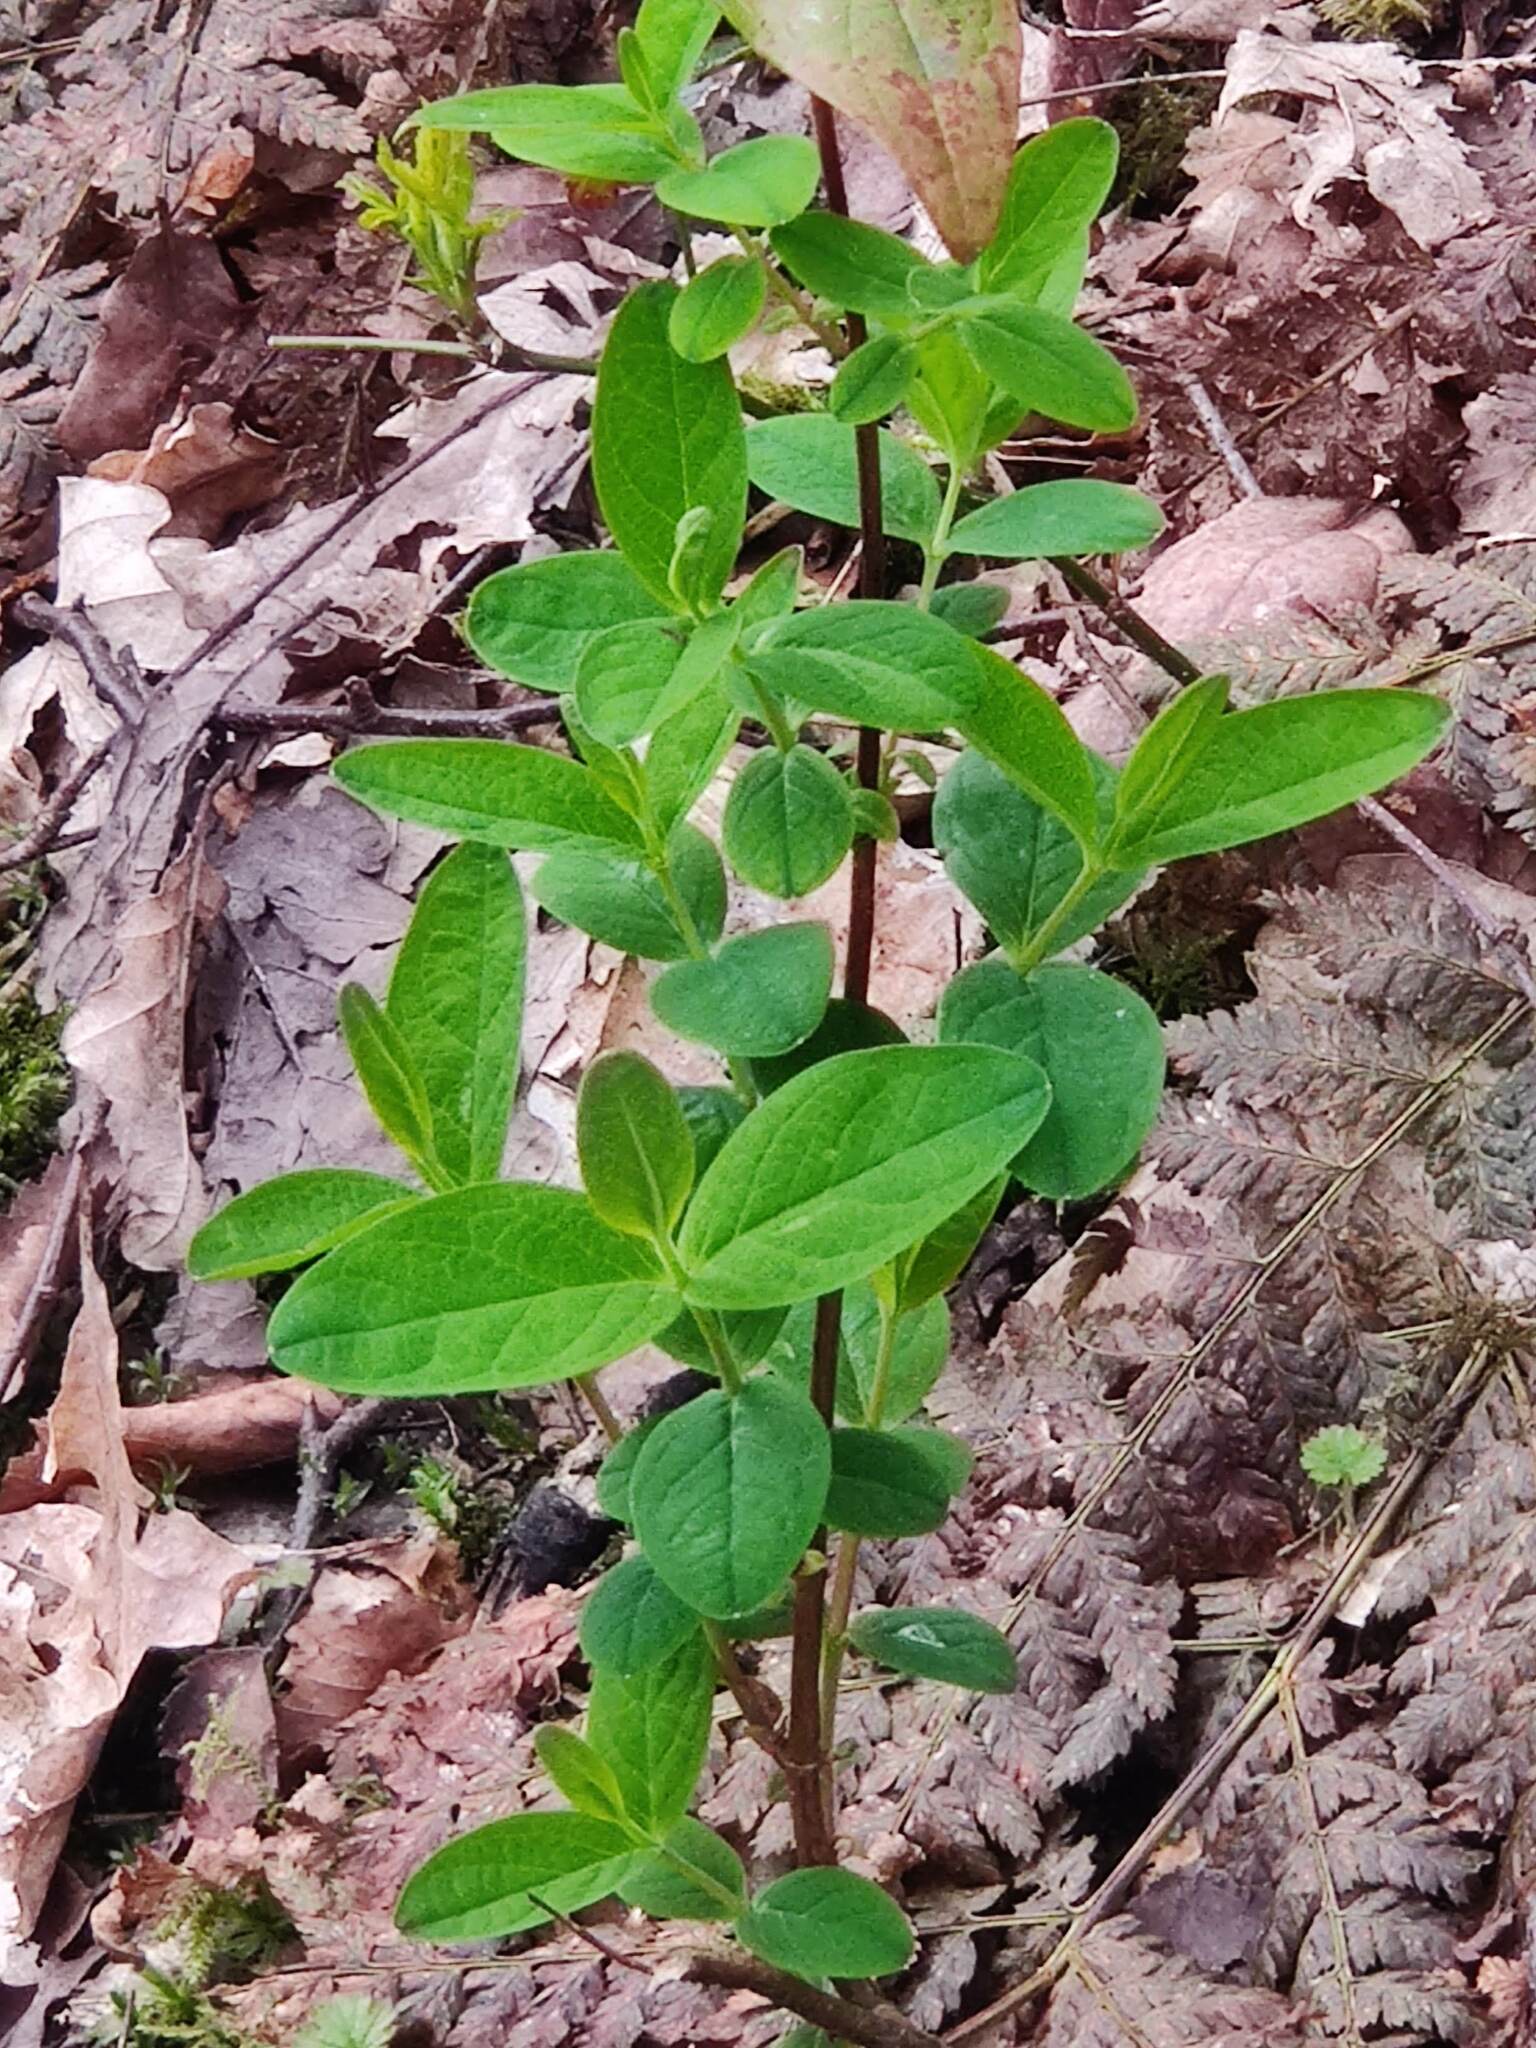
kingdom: Plantae
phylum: Tracheophyta
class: Magnoliopsida
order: Dipsacales
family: Caprifoliaceae
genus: Lonicera
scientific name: Lonicera periclymenum
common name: European honeysuckle
